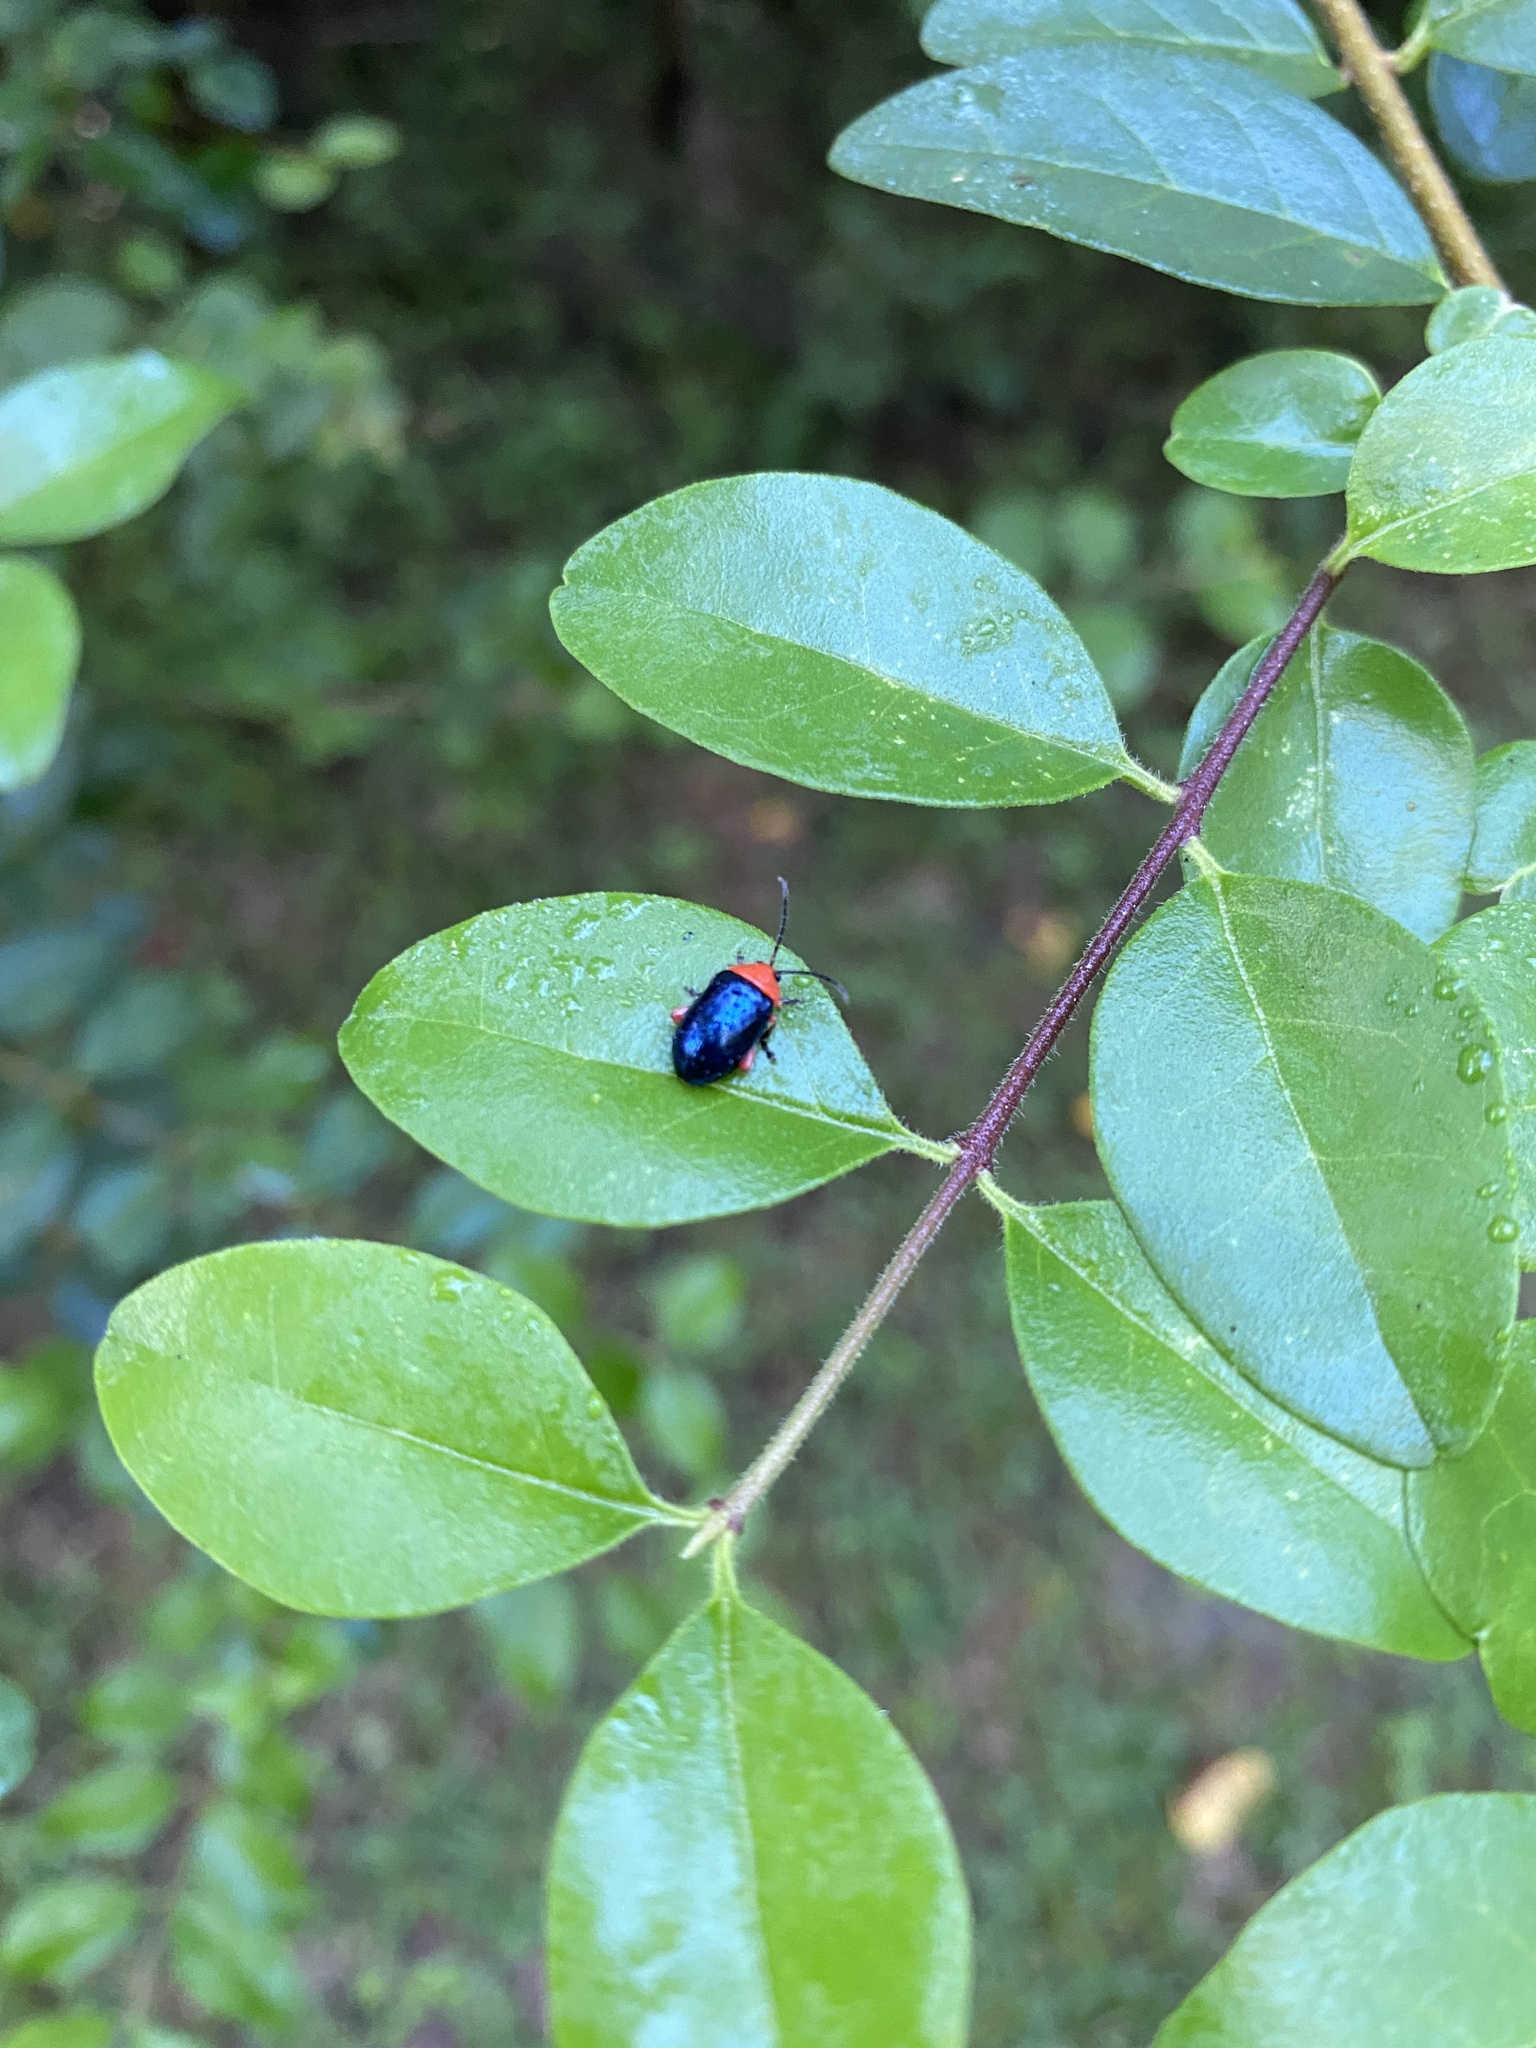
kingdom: Animalia
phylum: Arthropoda
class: Insecta
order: Coleoptera
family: Chrysomelidae
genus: Asphaera
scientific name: Asphaera lustrans
